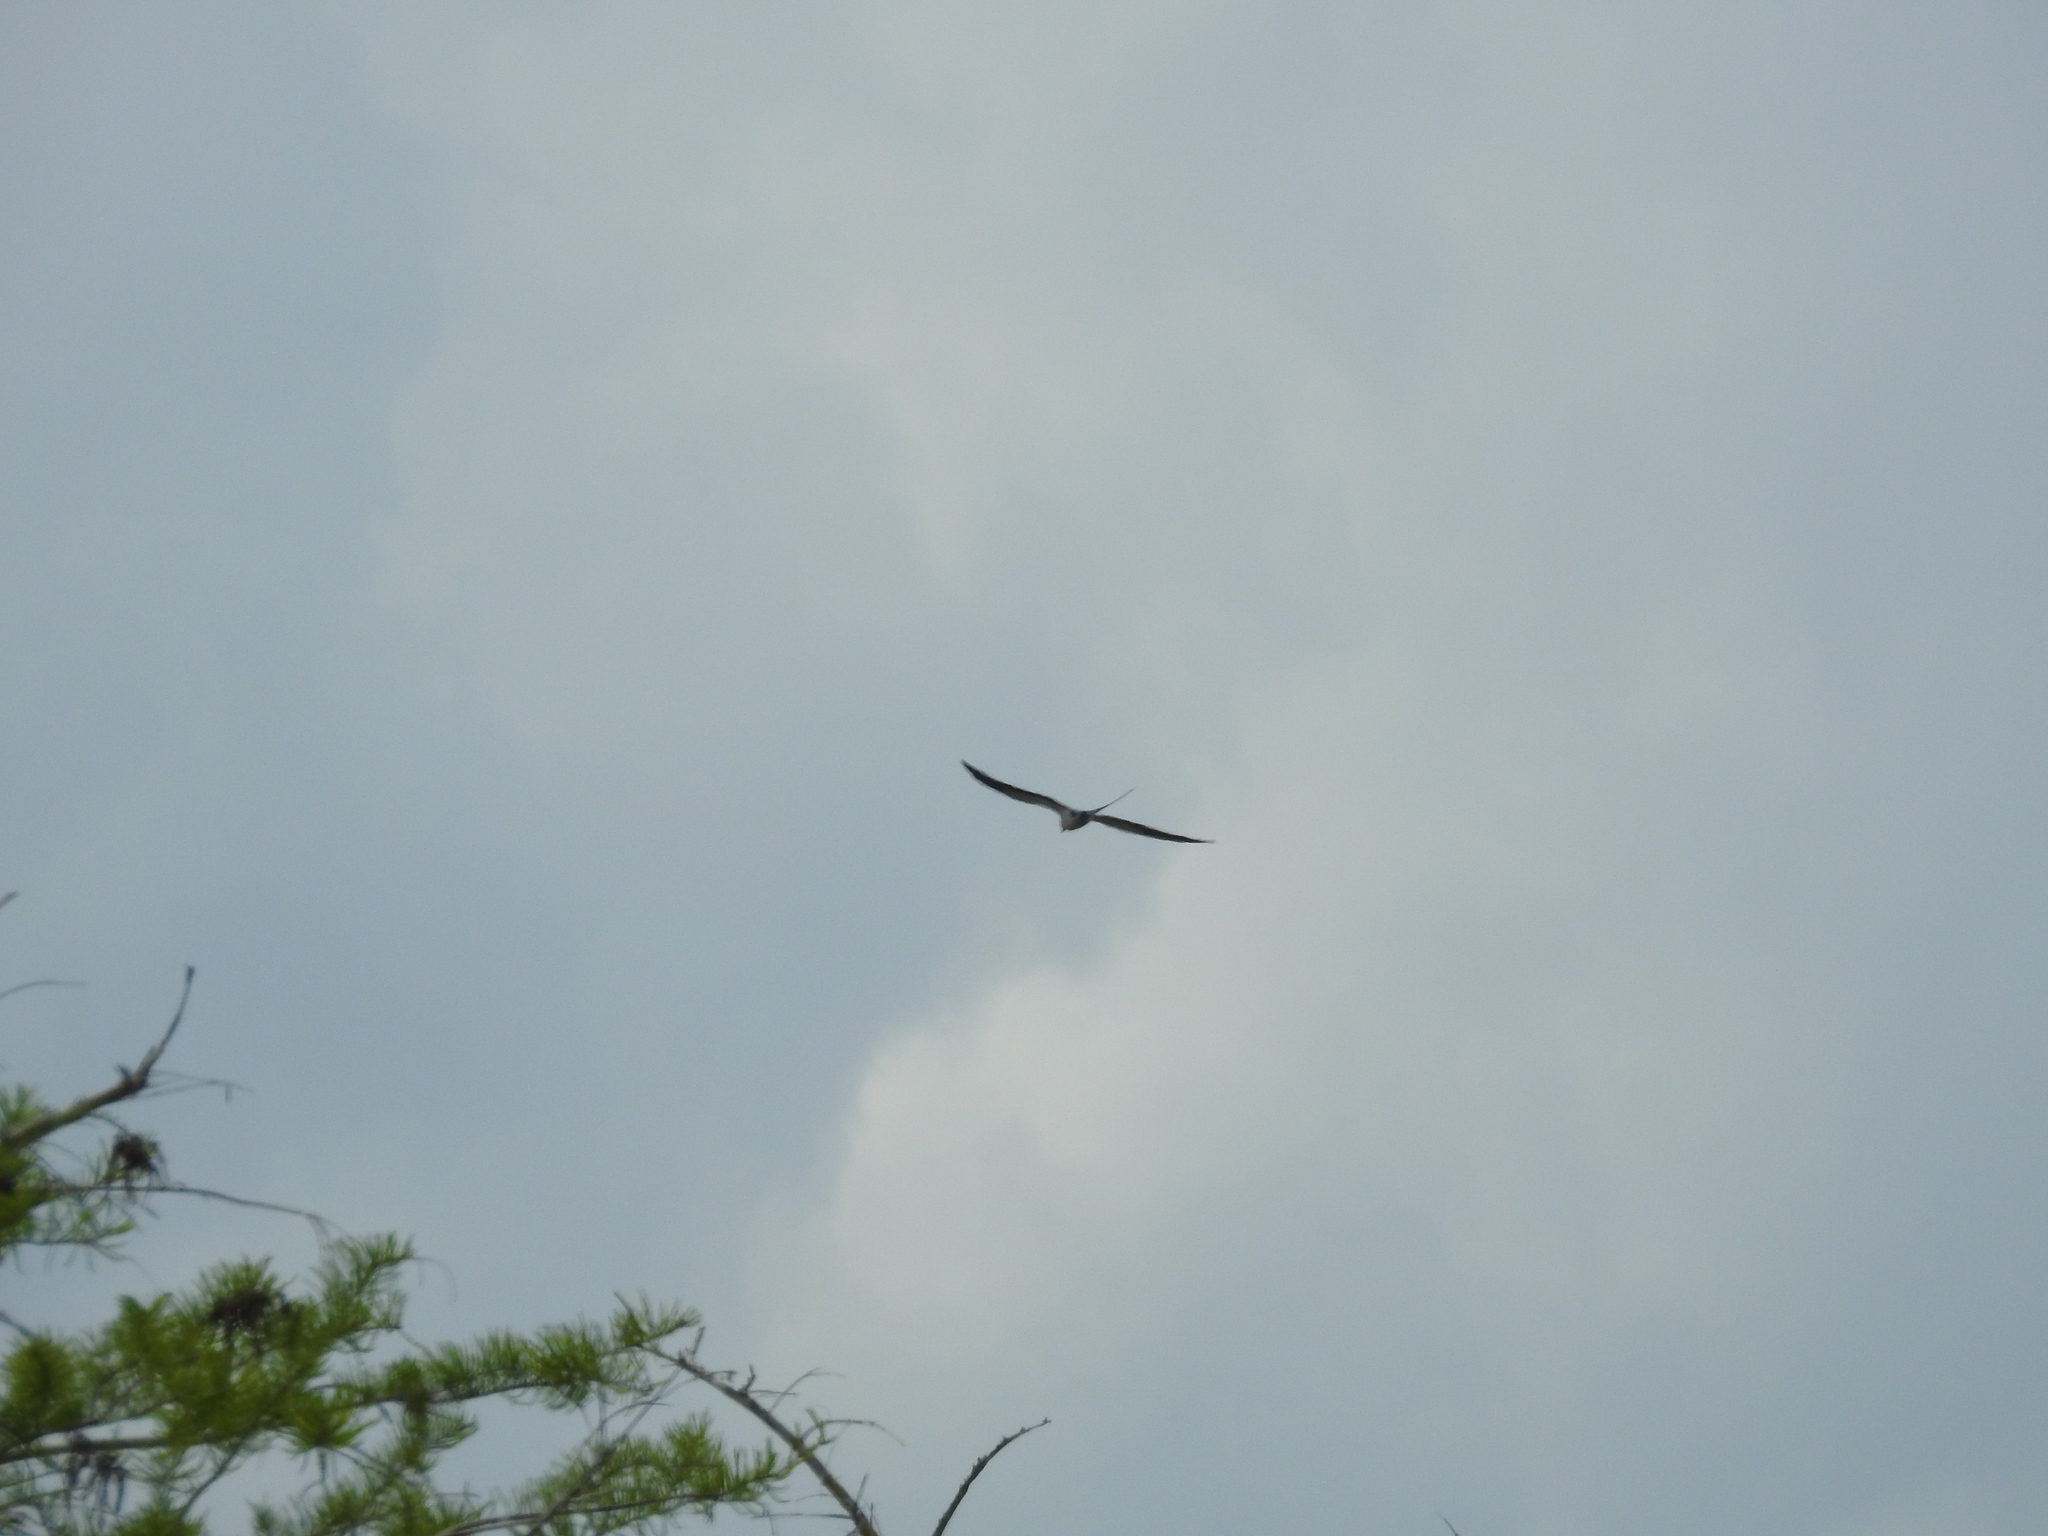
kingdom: Animalia
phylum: Chordata
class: Aves
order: Accipitriformes
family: Accipitridae
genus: Elanoides
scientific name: Elanoides forficatus
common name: Swallow-tailed kite
